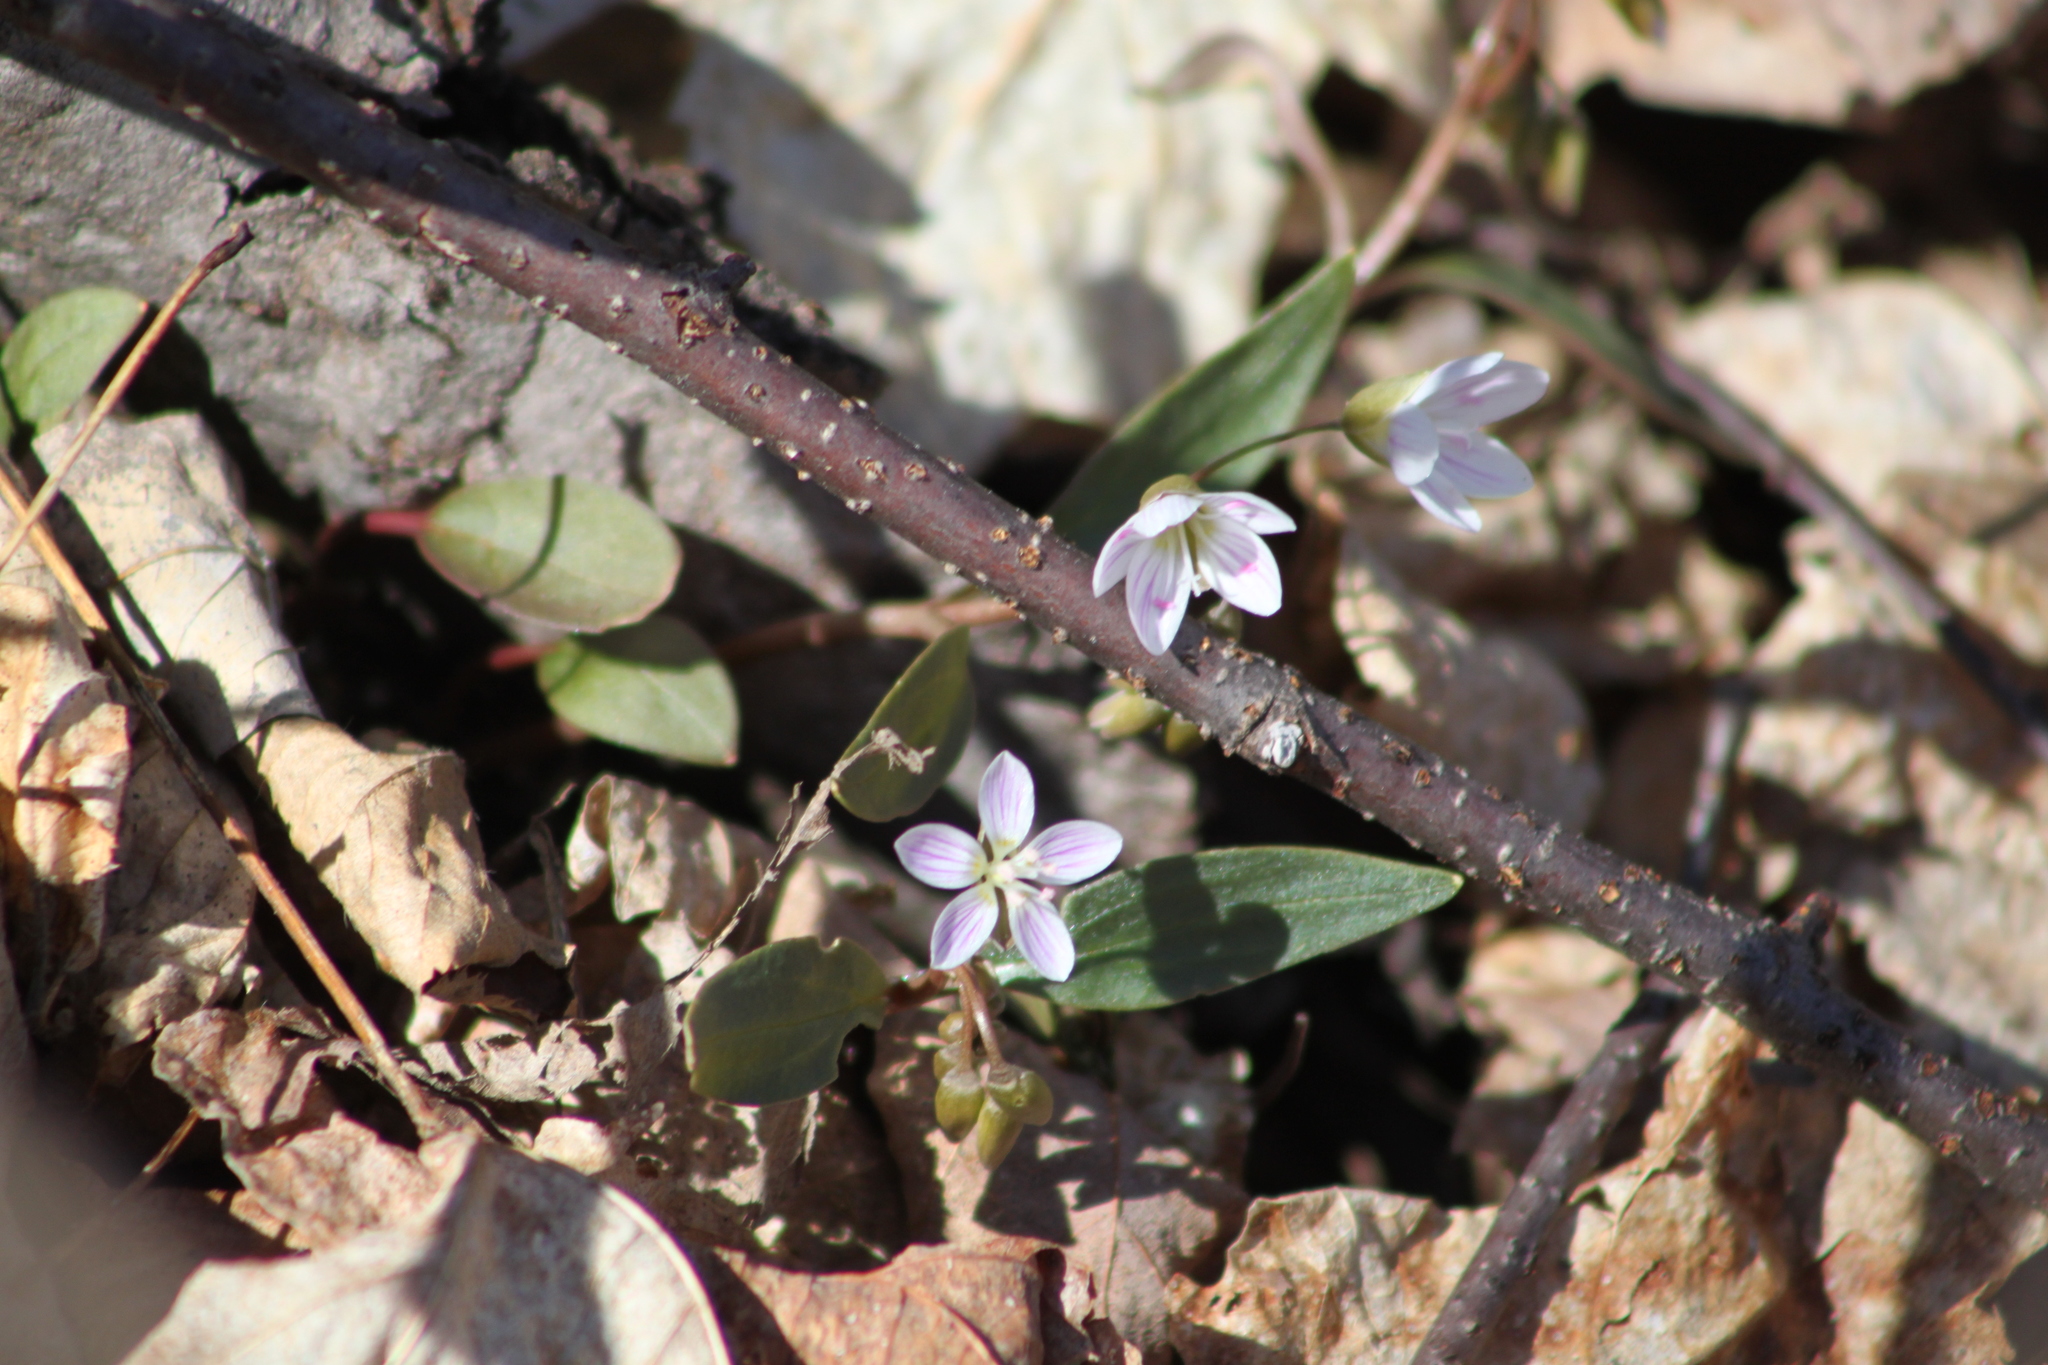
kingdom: Plantae
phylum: Tracheophyta
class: Magnoliopsida
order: Caryophyllales
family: Montiaceae
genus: Claytonia
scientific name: Claytonia caroliniana
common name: Carolina spring beauty
